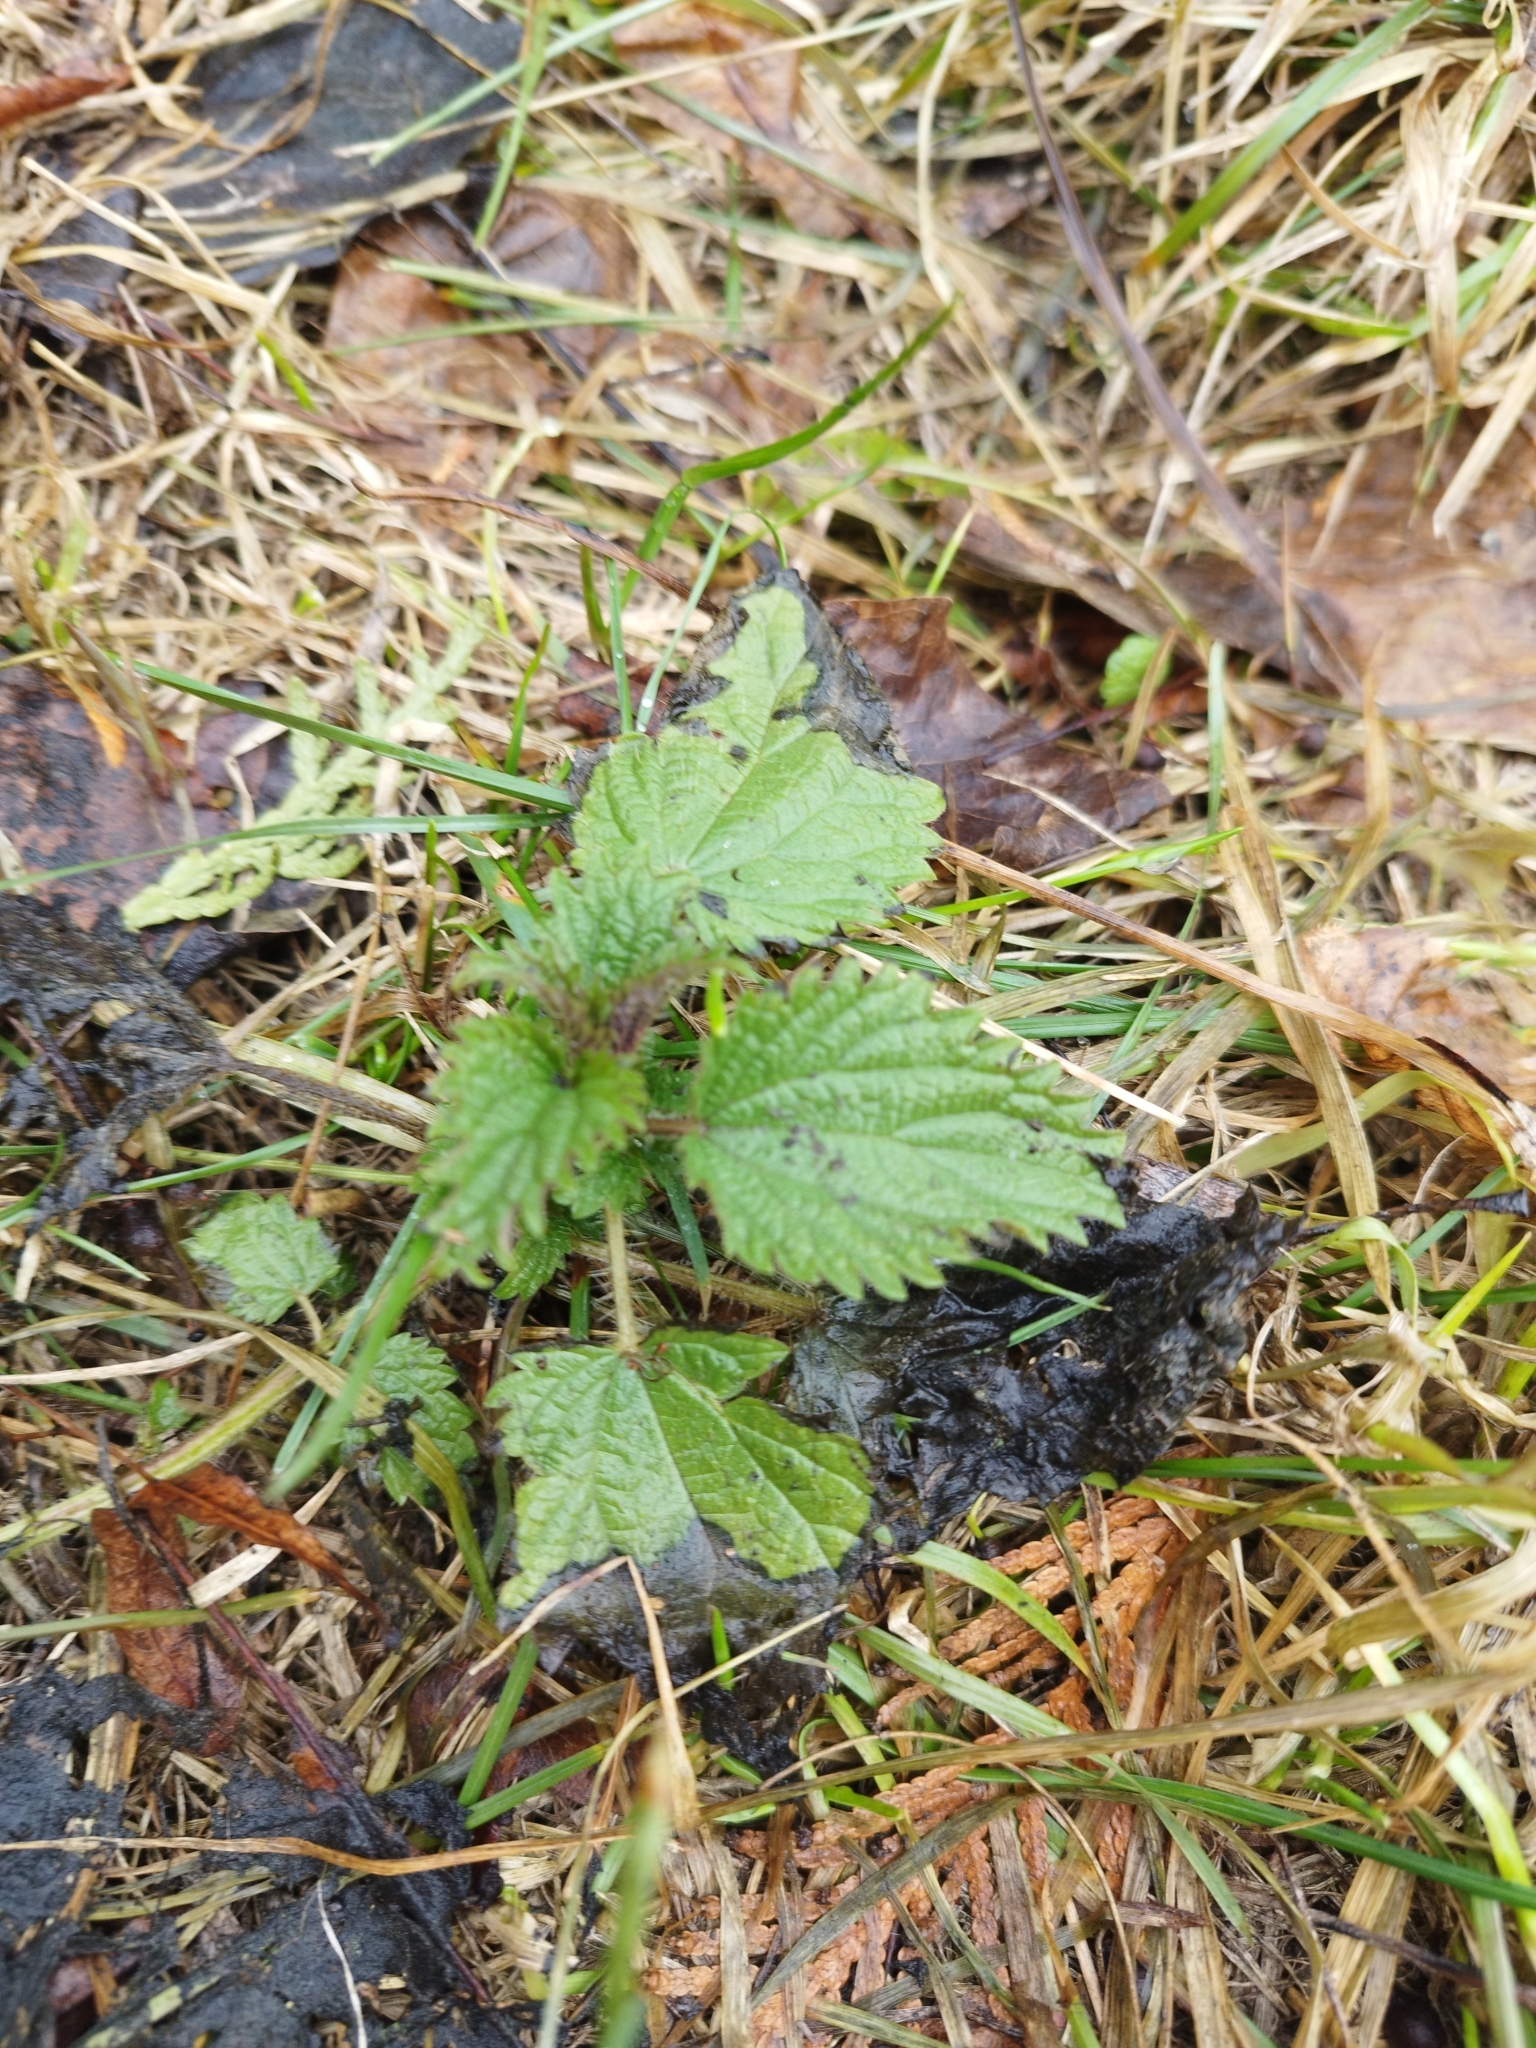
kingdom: Plantae
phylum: Tracheophyta
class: Magnoliopsida
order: Rosales
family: Urticaceae
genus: Urtica
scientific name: Urtica dioica
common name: Common nettle
